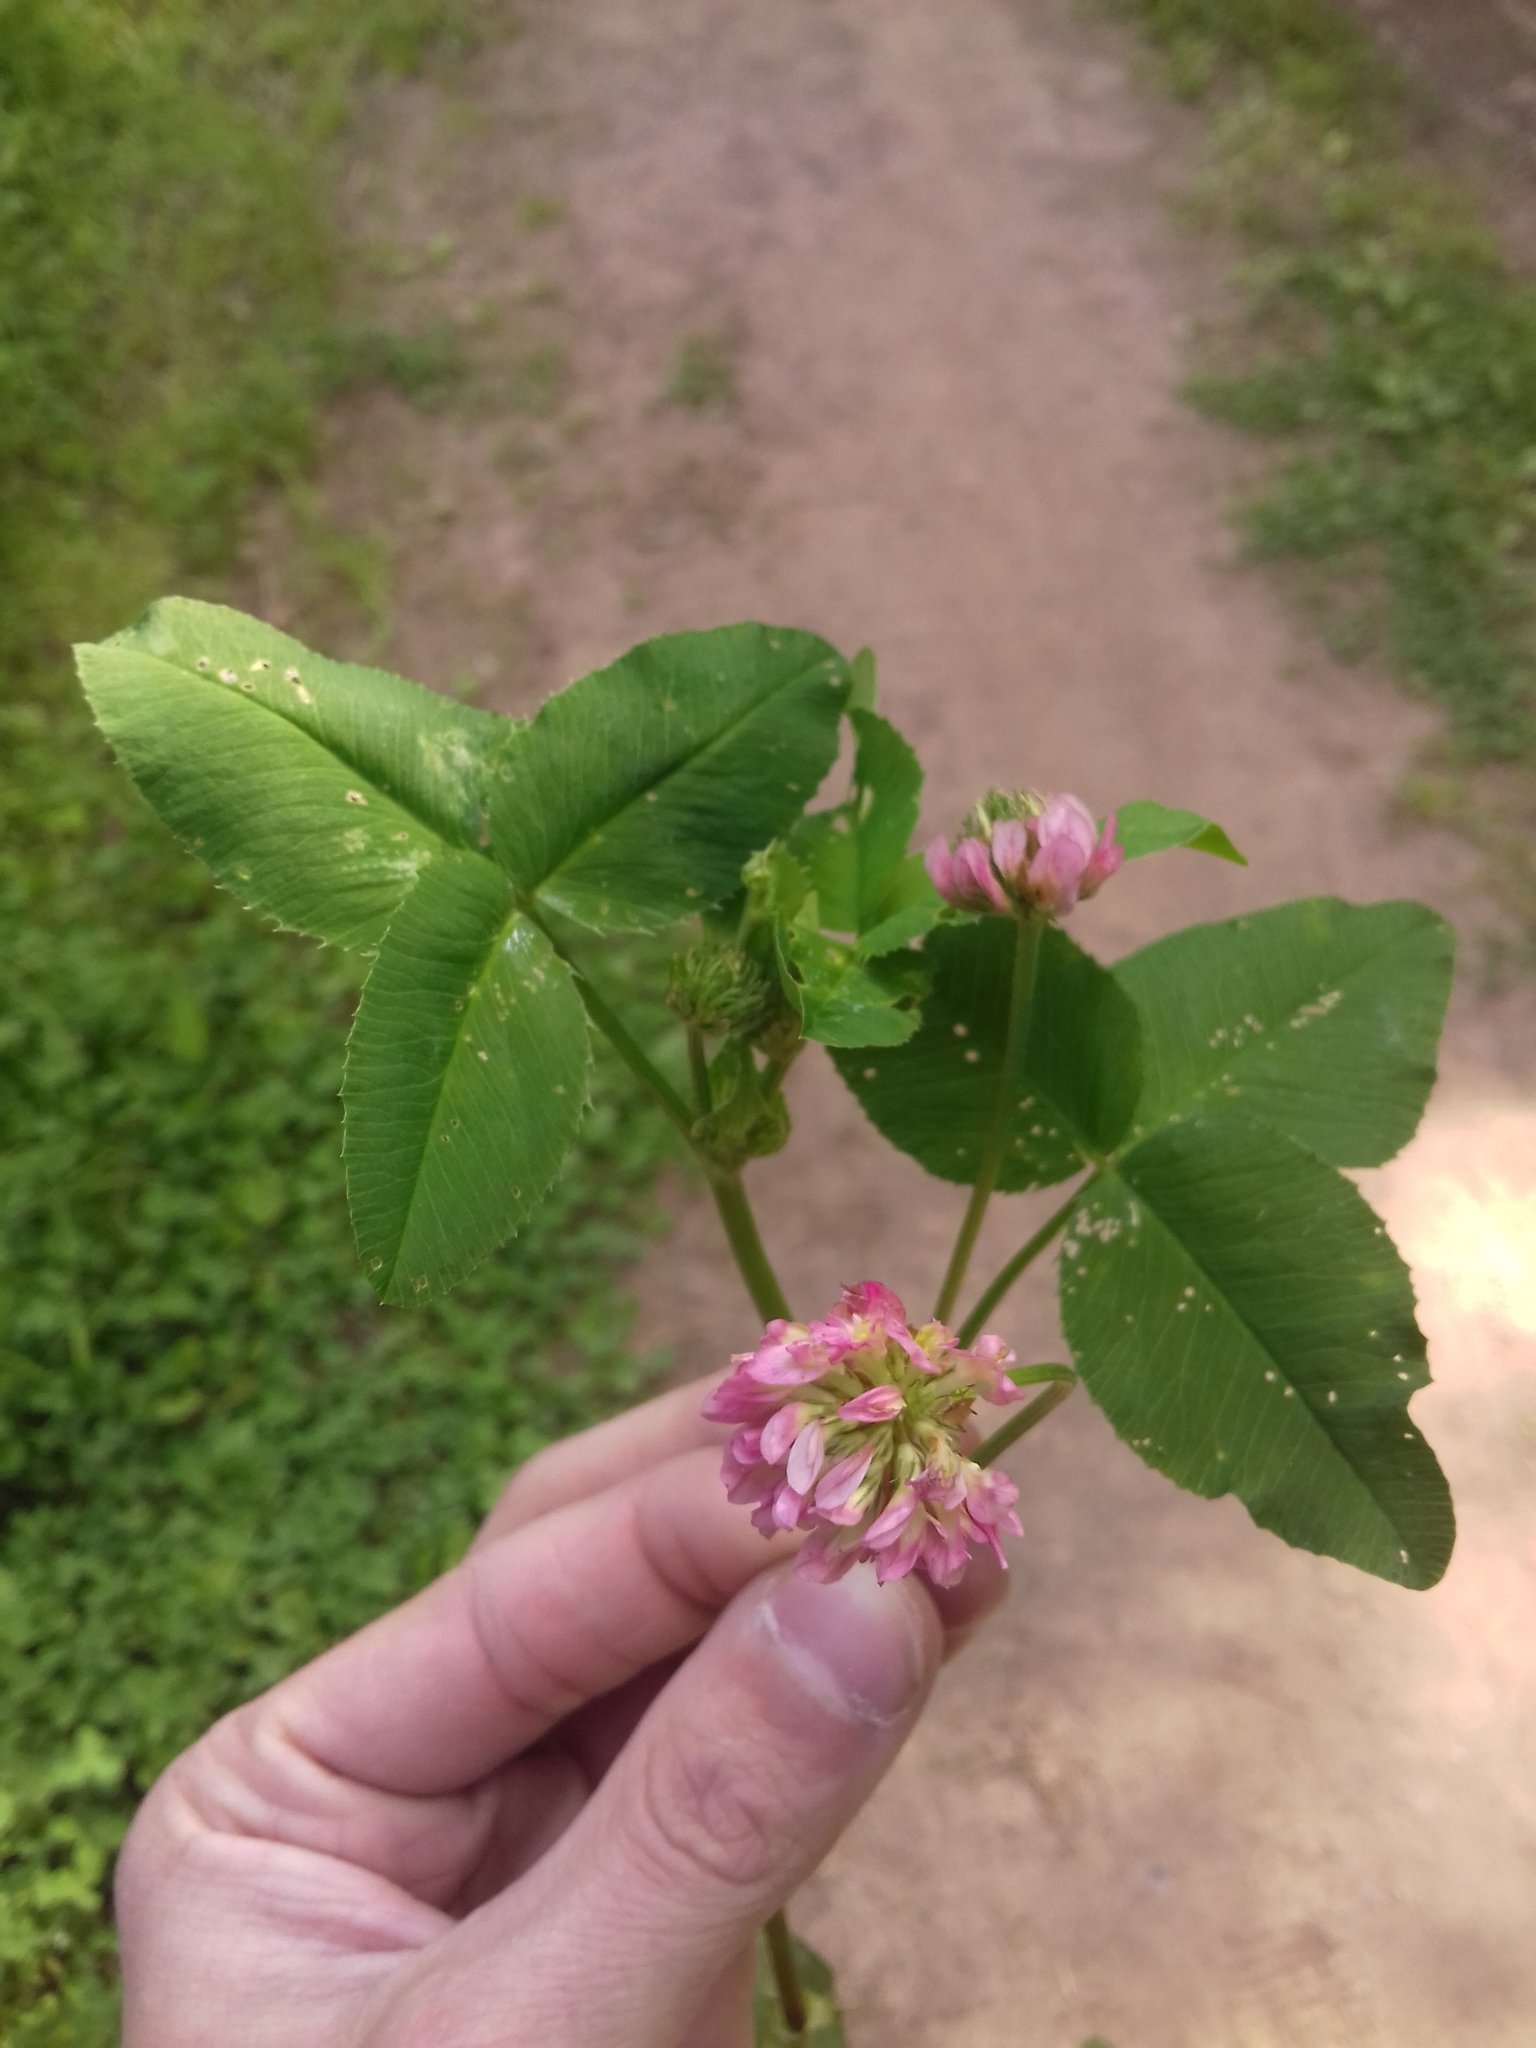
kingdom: Plantae
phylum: Tracheophyta
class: Magnoliopsida
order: Fabales
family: Fabaceae
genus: Trifolium
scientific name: Trifolium pratense
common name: Red clover
